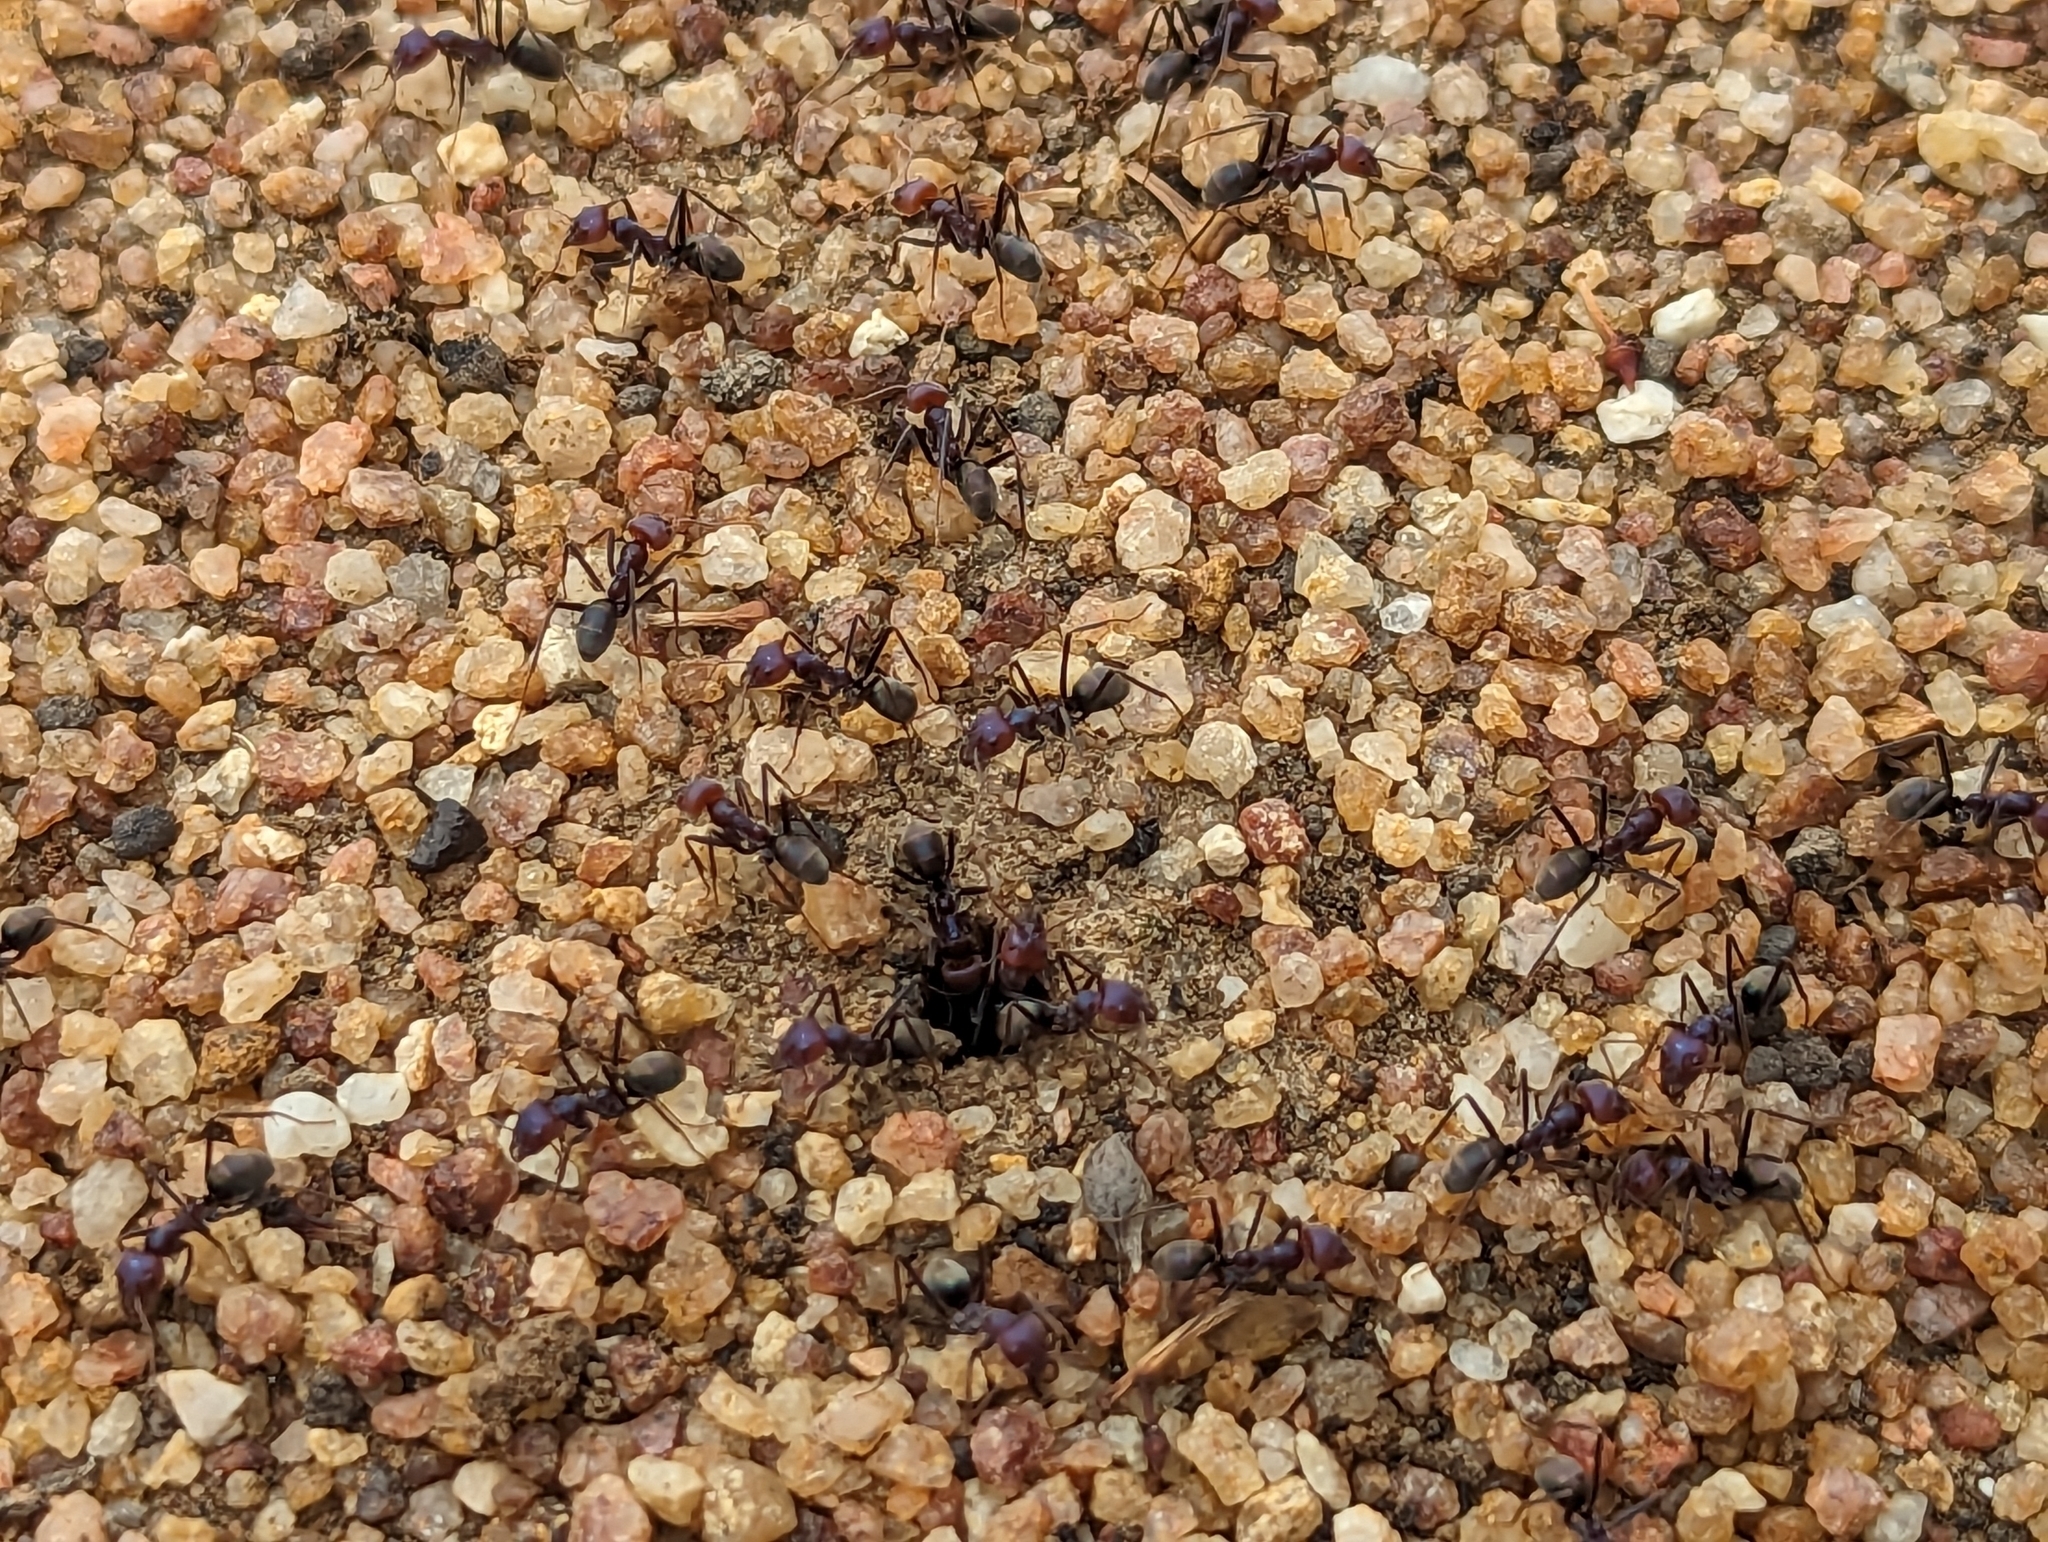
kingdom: Animalia
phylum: Arthropoda
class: Insecta
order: Hymenoptera
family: Formicidae
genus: Iridomyrmex
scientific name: Iridomyrmex purpureus
